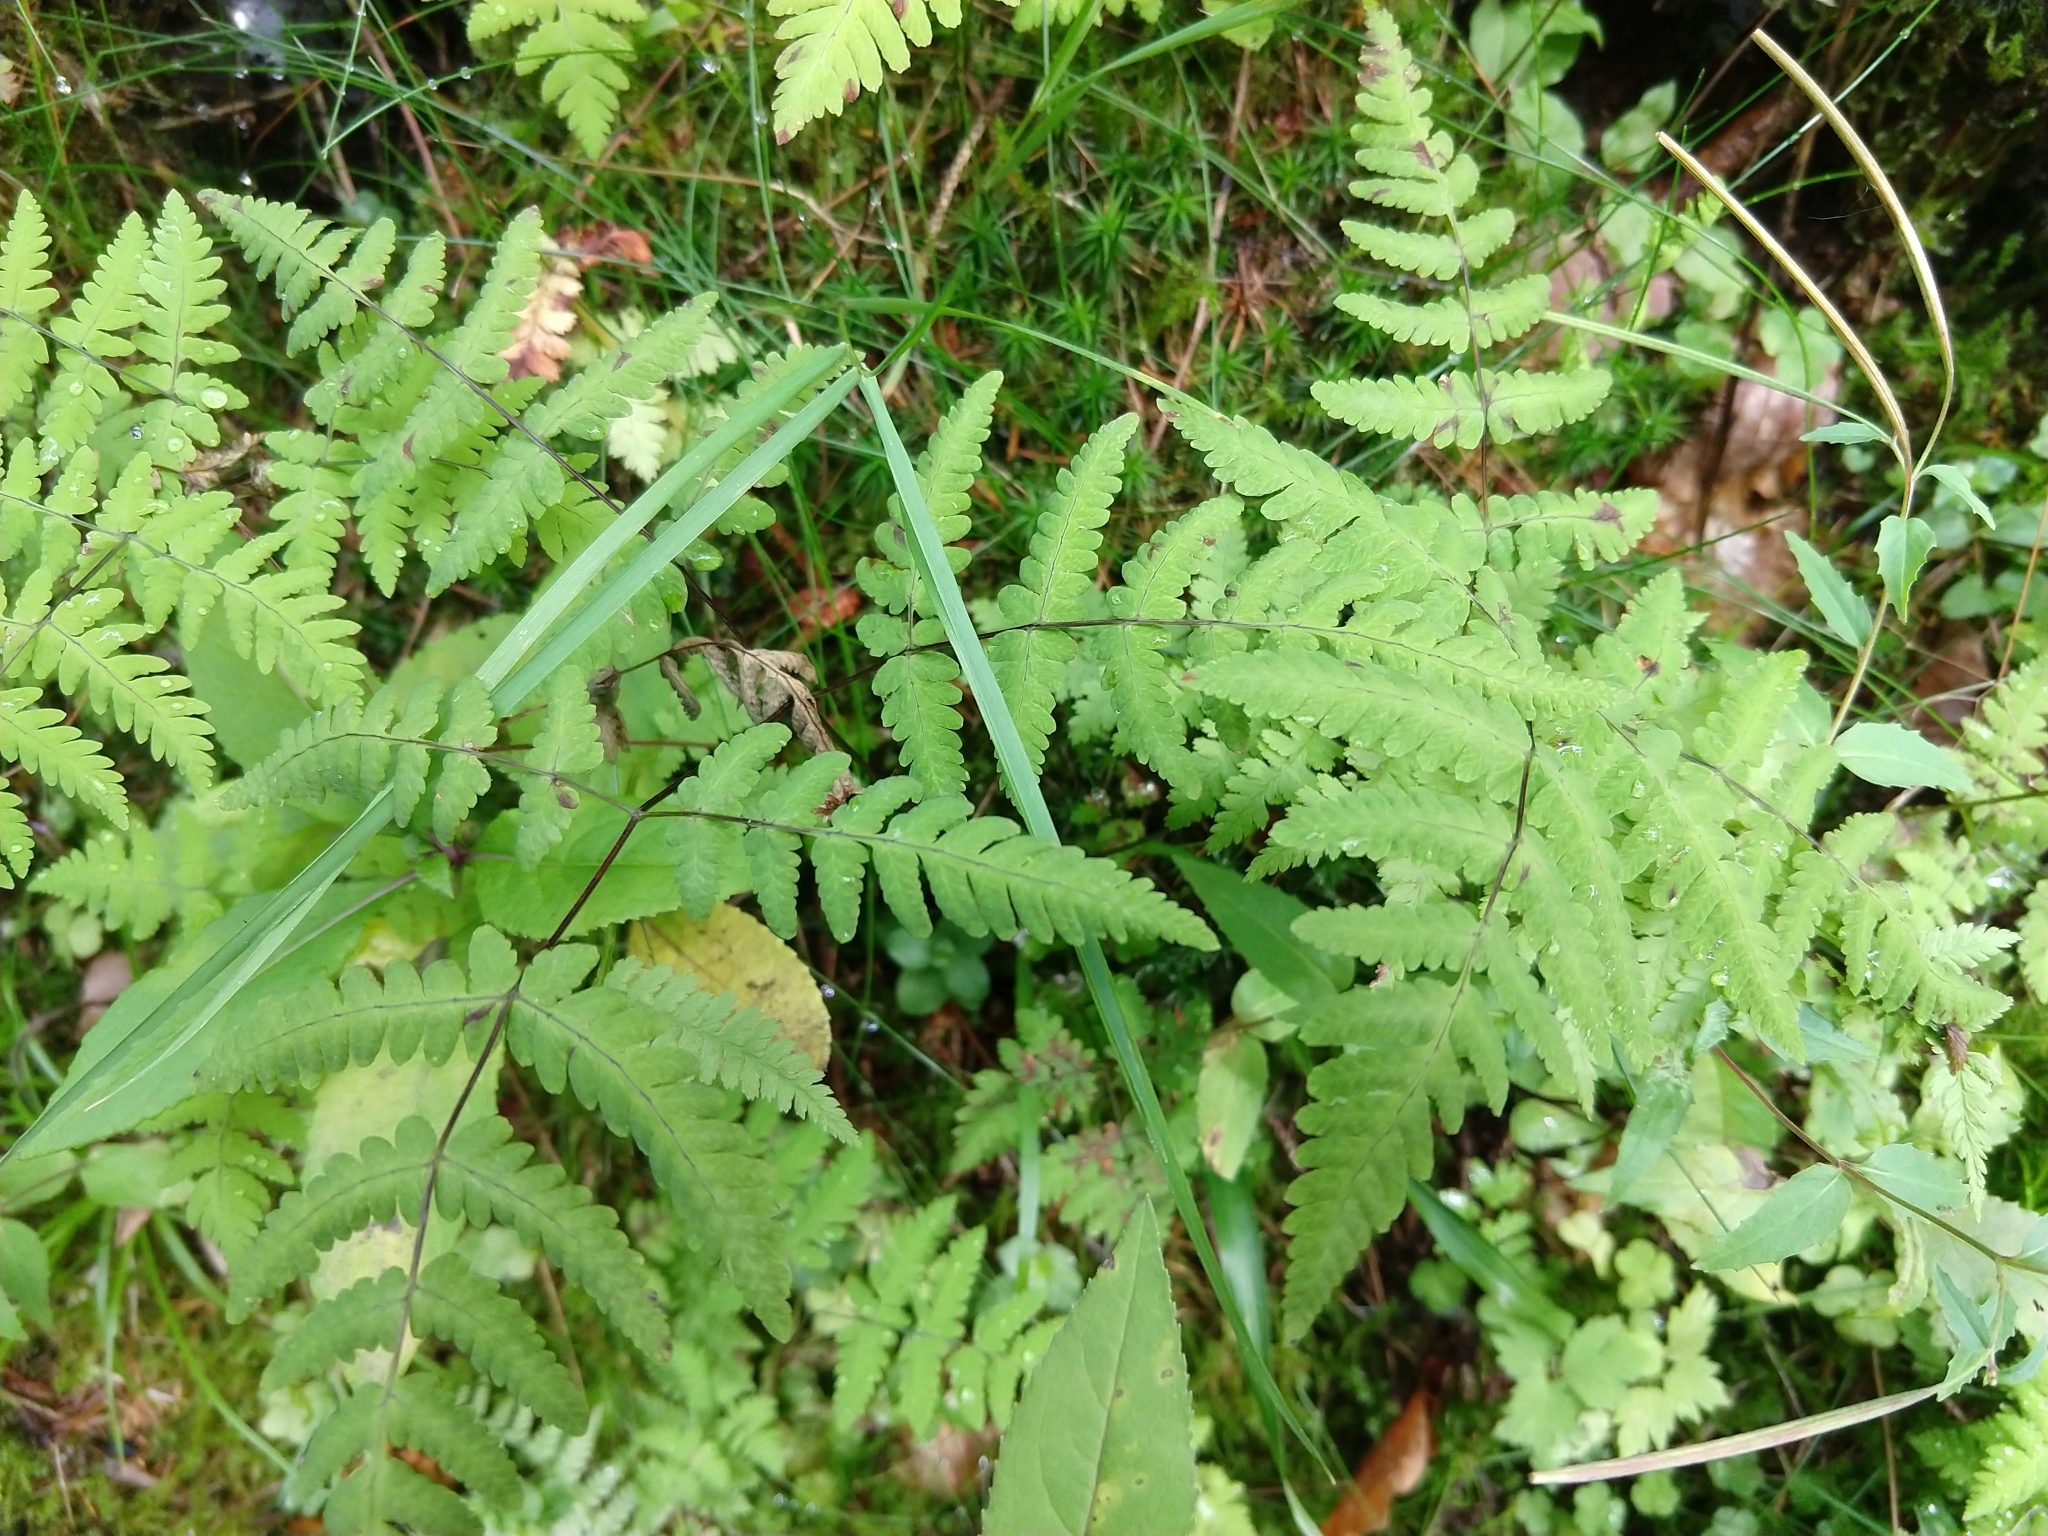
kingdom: Plantae
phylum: Tracheophyta
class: Polypodiopsida
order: Polypodiales
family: Cystopteridaceae
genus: Gymnocarpium
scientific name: Gymnocarpium dryopteris
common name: Oak fern
